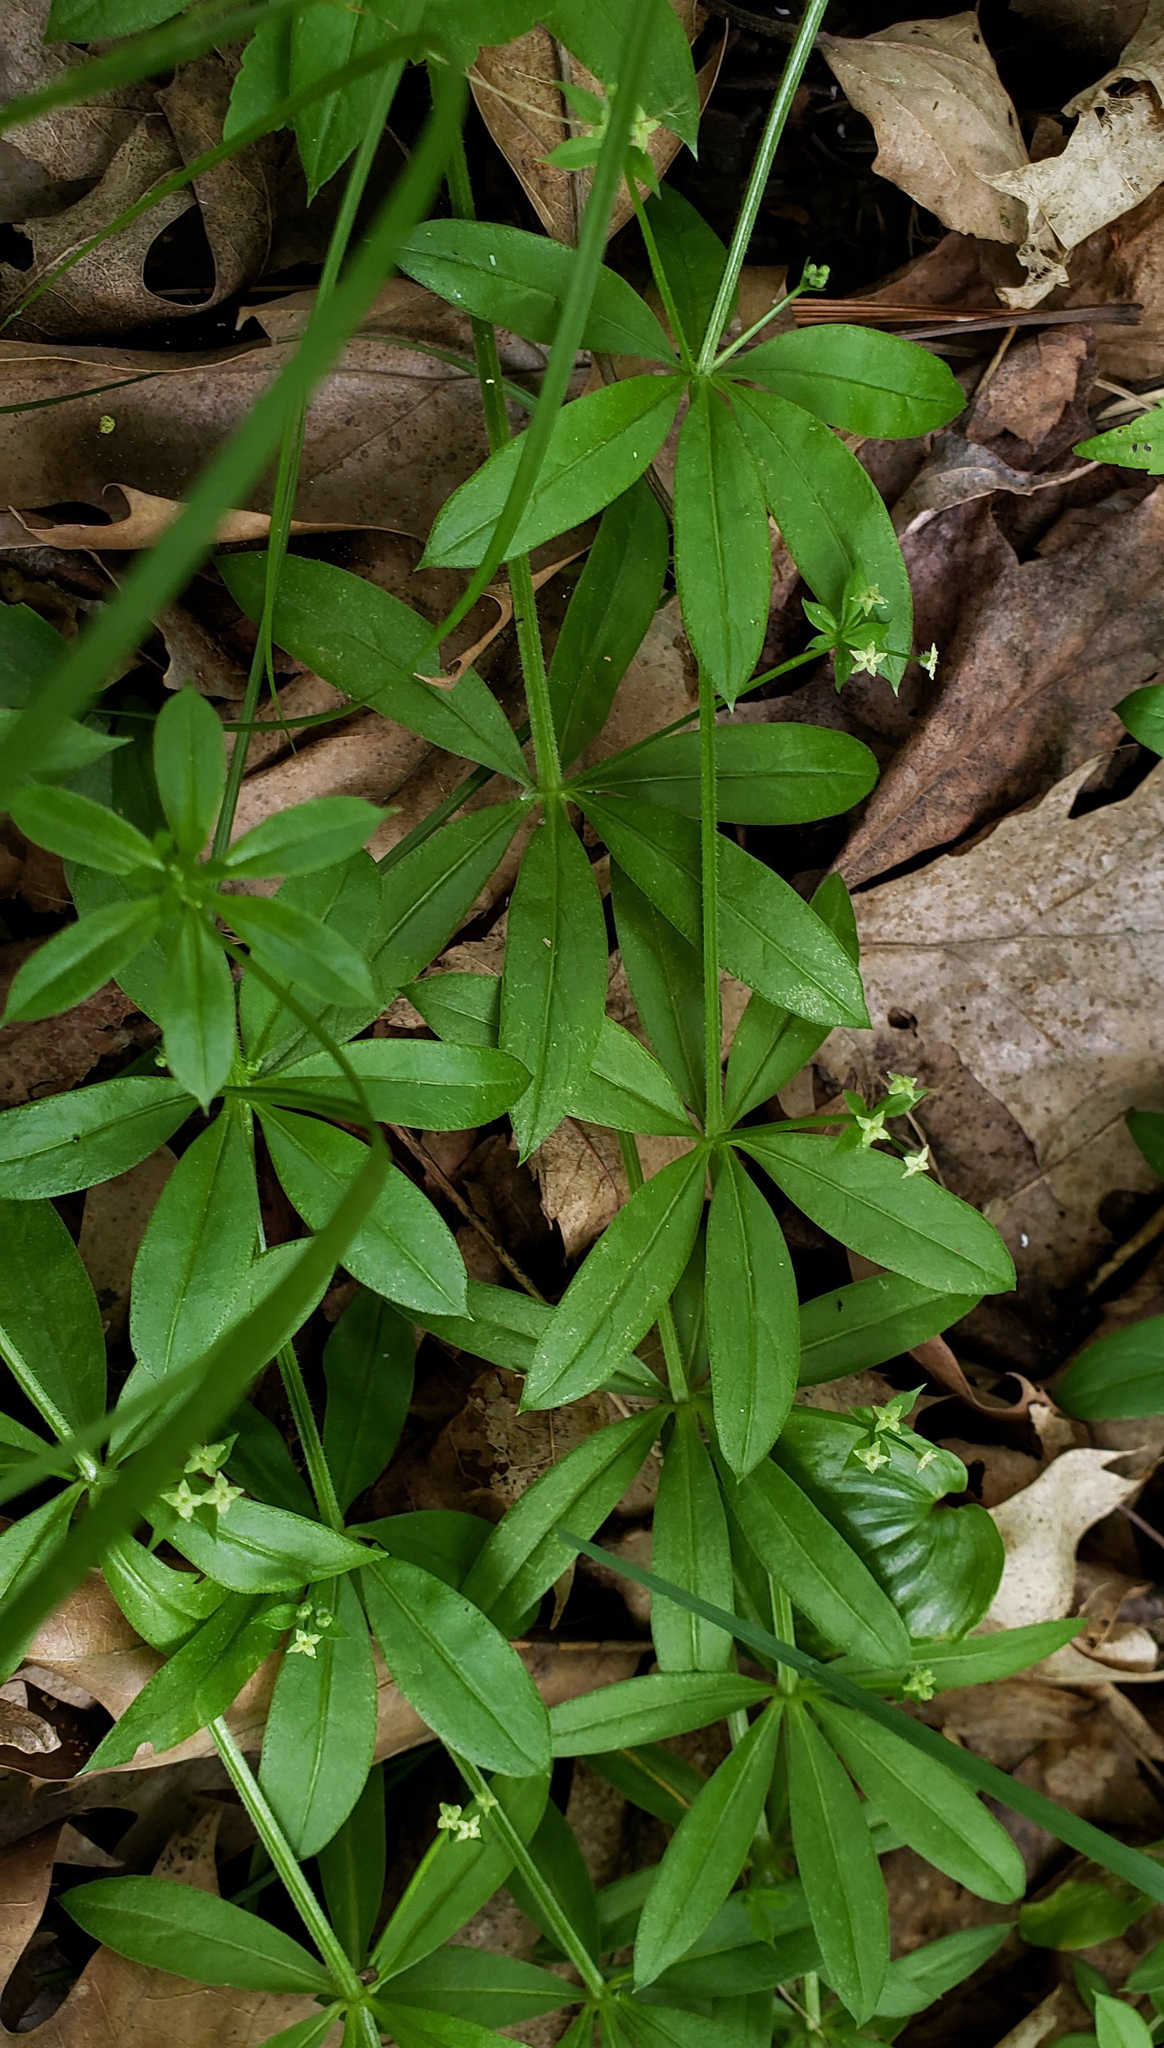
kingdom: Plantae
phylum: Tracheophyta
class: Magnoliopsida
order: Gentianales
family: Rubiaceae
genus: Galium
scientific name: Galium triflorum
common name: Fragrant bedstraw
